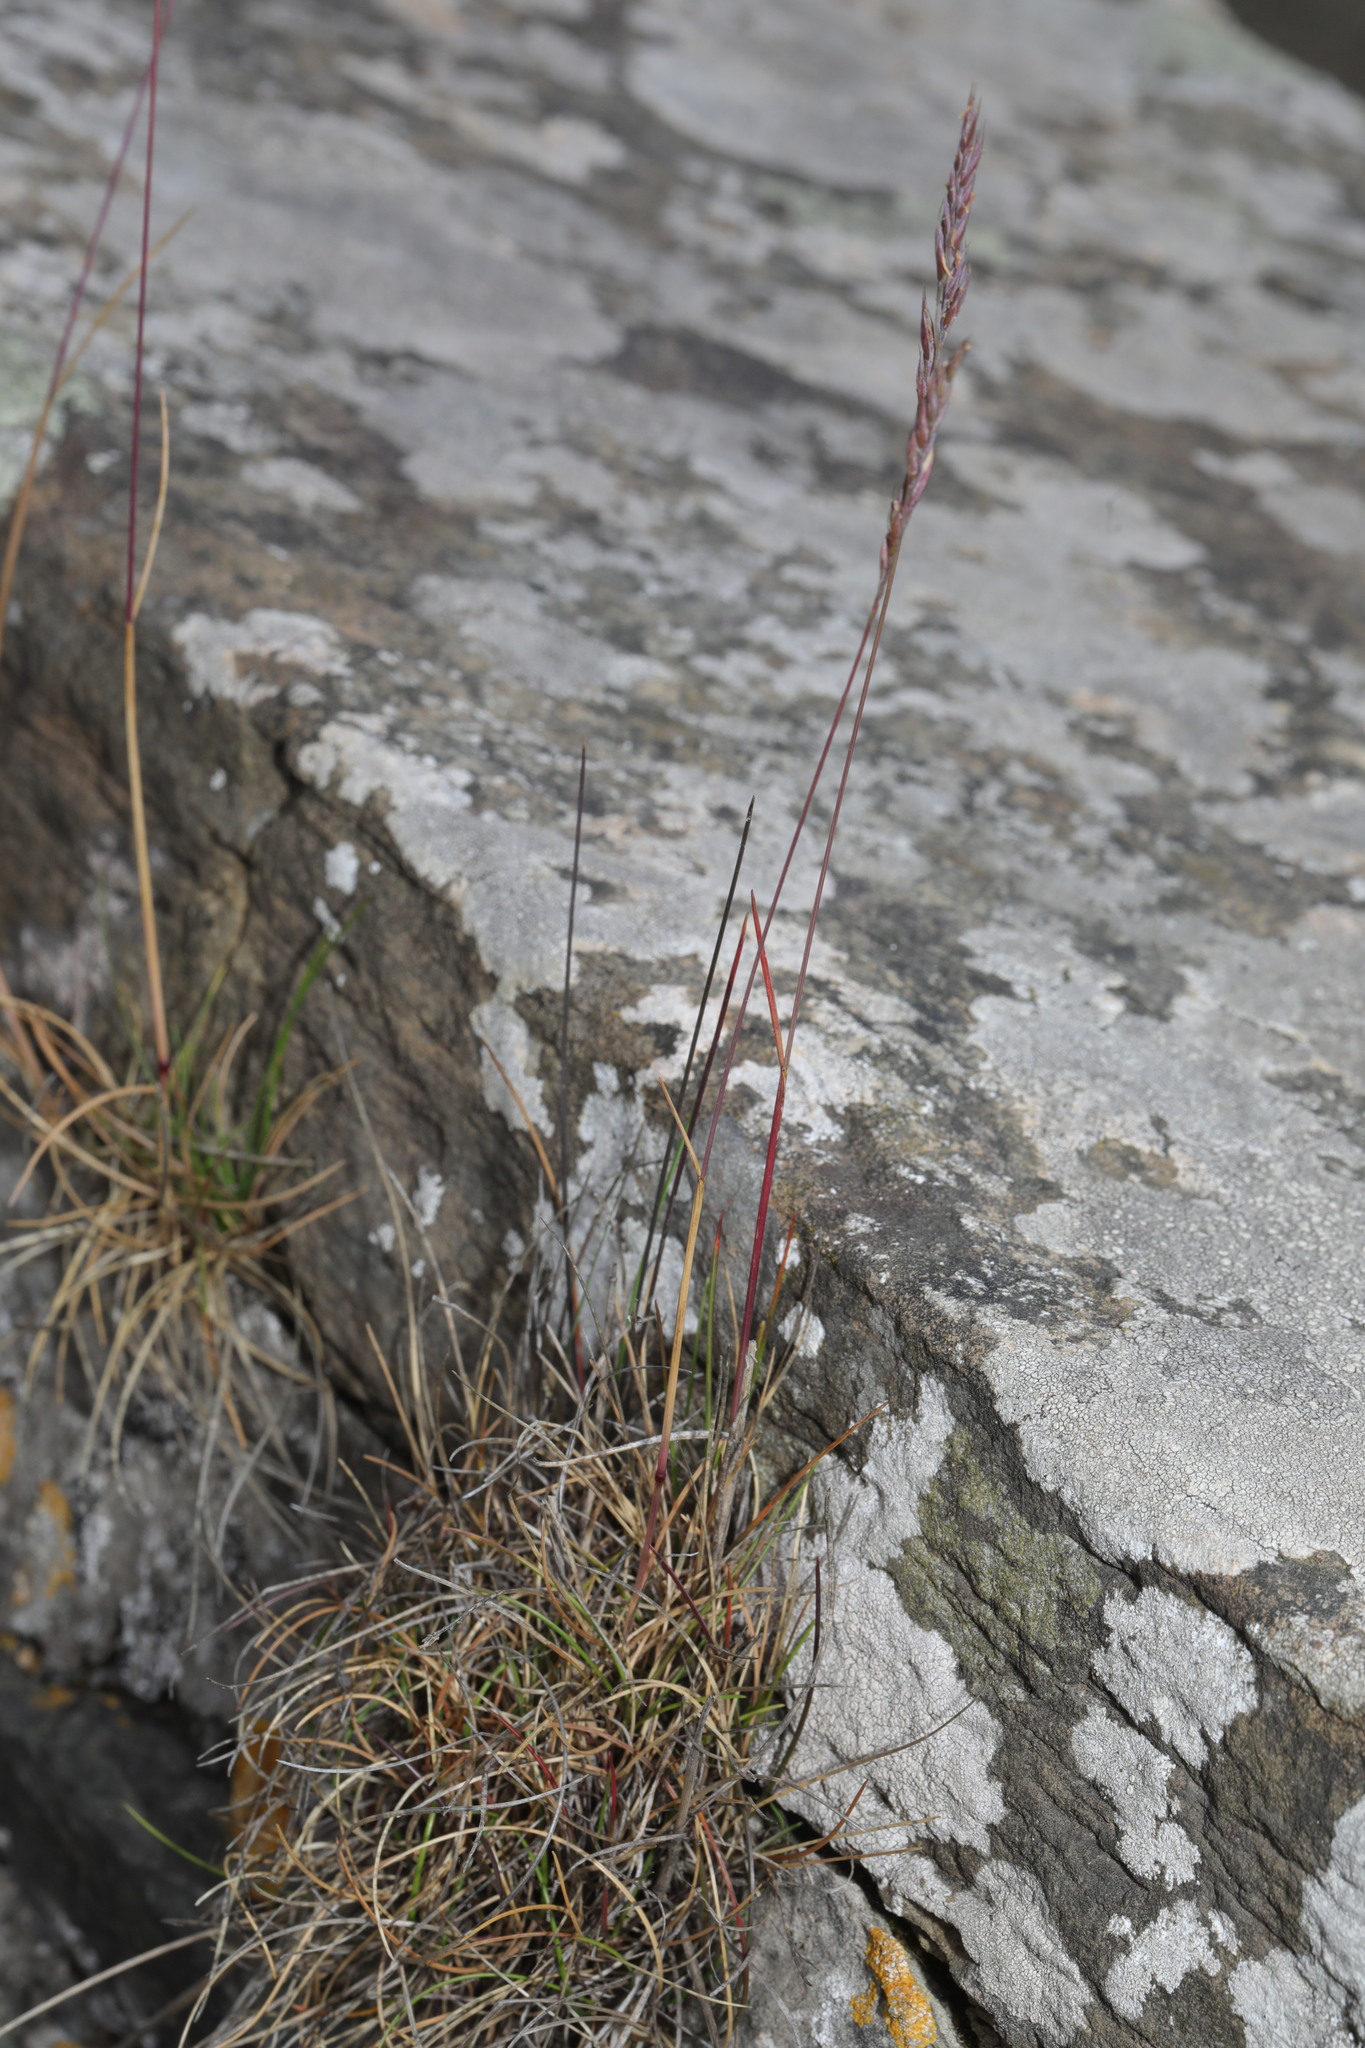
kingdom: Plantae
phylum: Tracheophyta
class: Liliopsida
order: Poales
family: Poaceae
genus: Festuca
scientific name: Festuca ovina
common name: Sheep fescue
